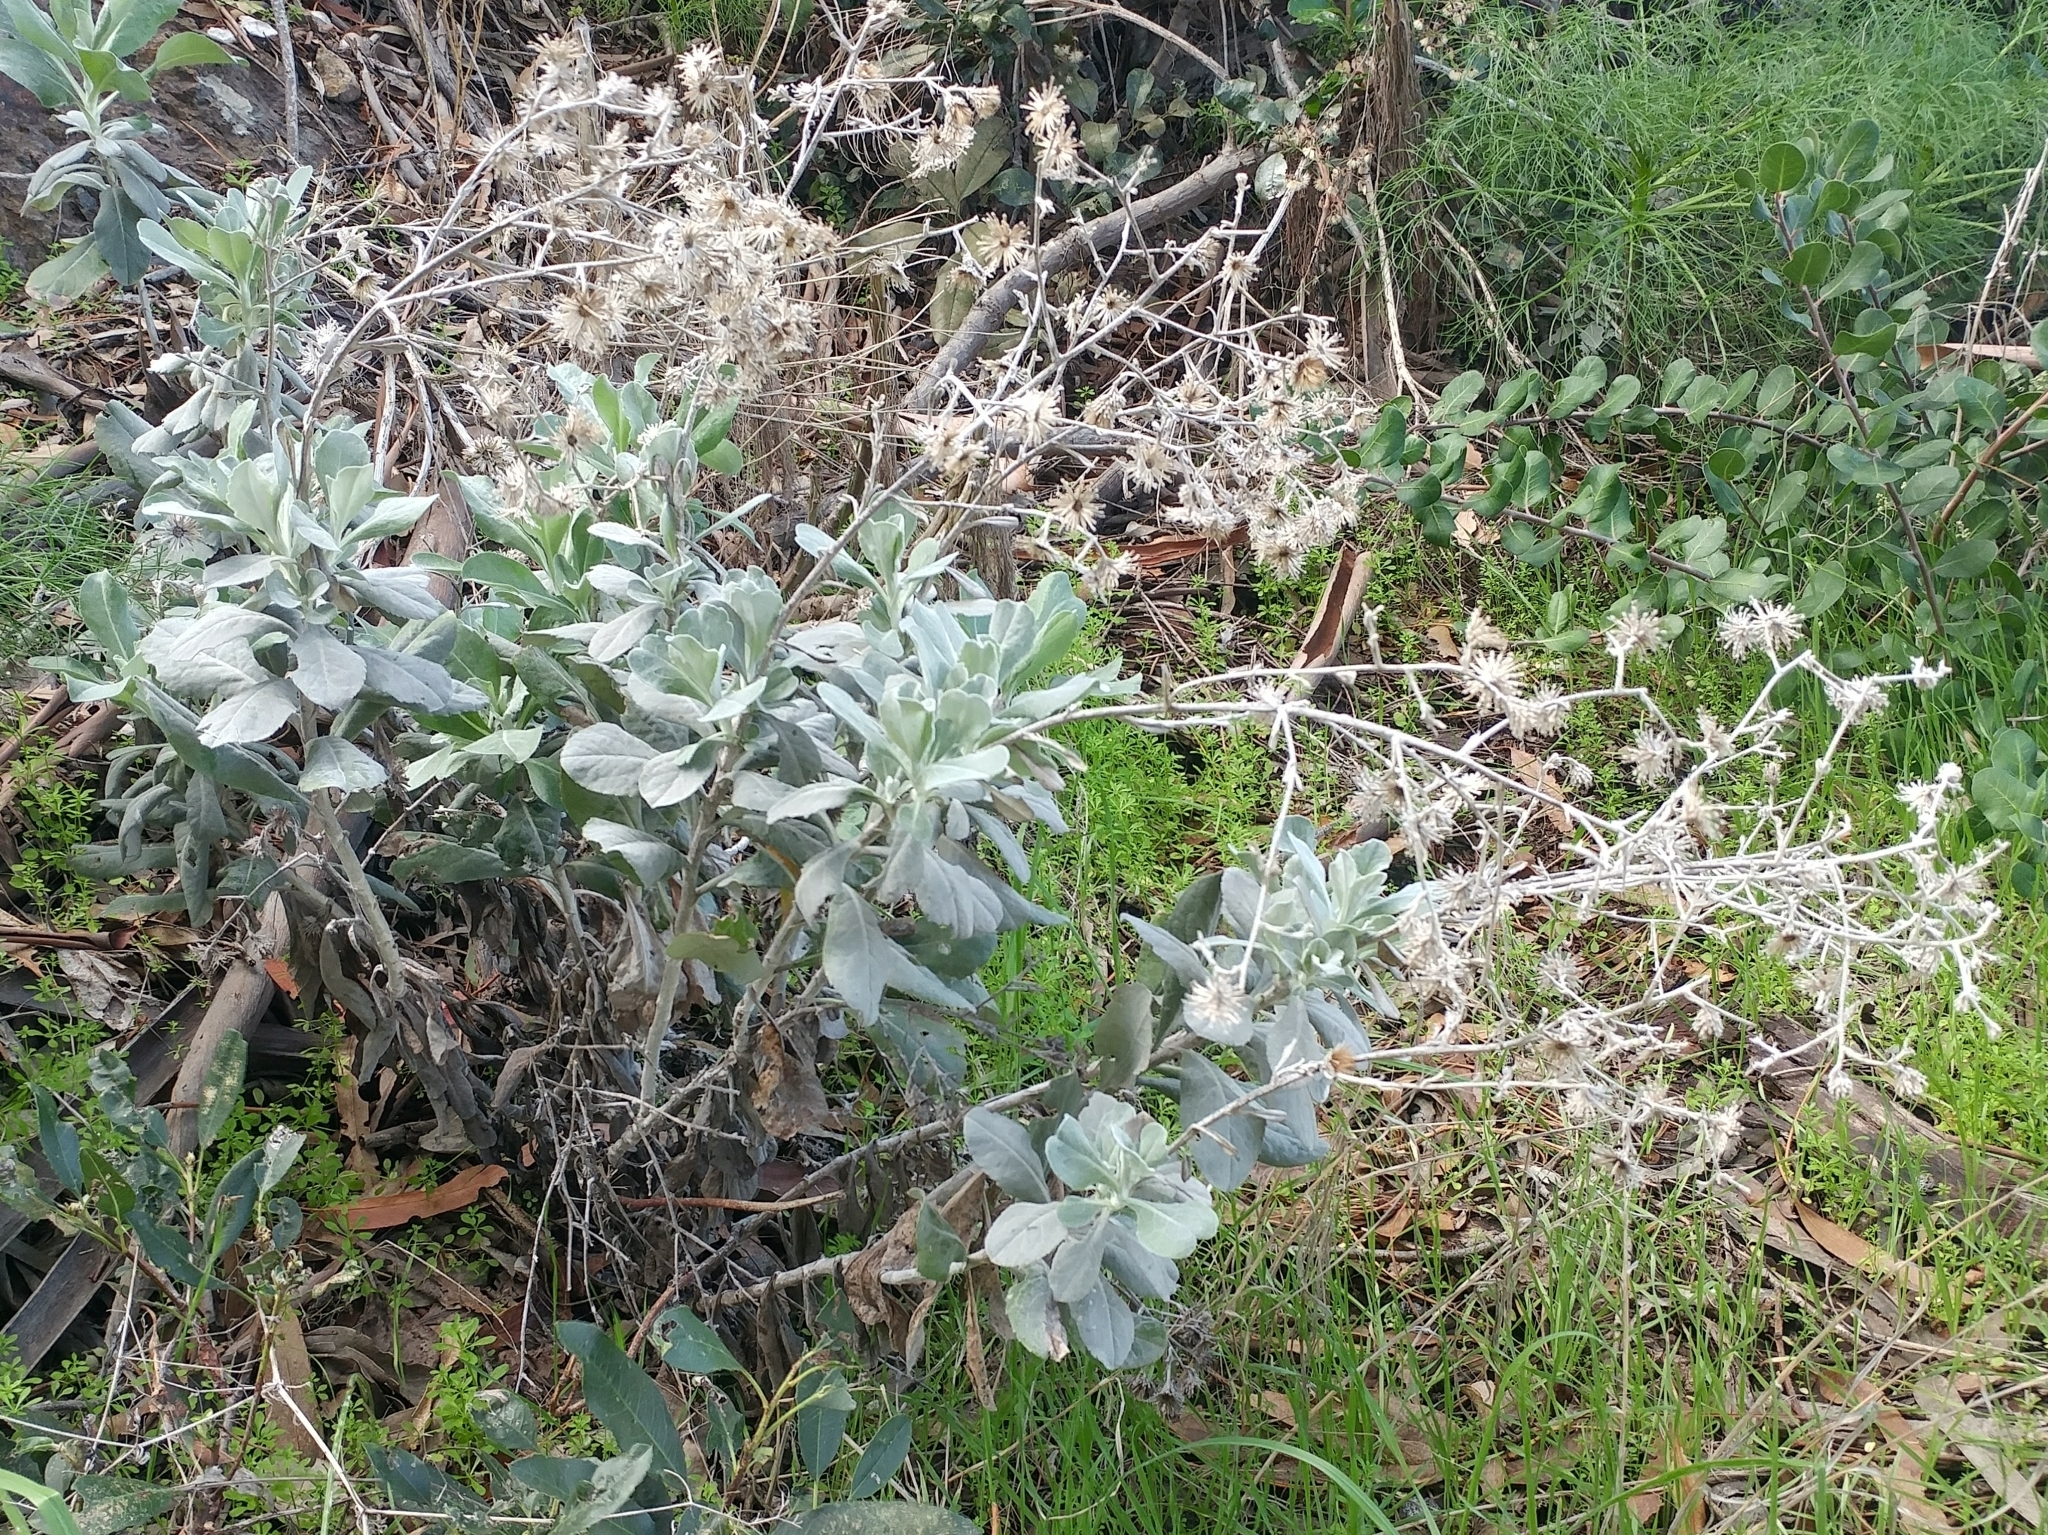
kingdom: Plantae
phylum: Tracheophyta
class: Magnoliopsida
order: Asterales
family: Asteraceae
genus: Hazardia
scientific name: Hazardia detonsa
